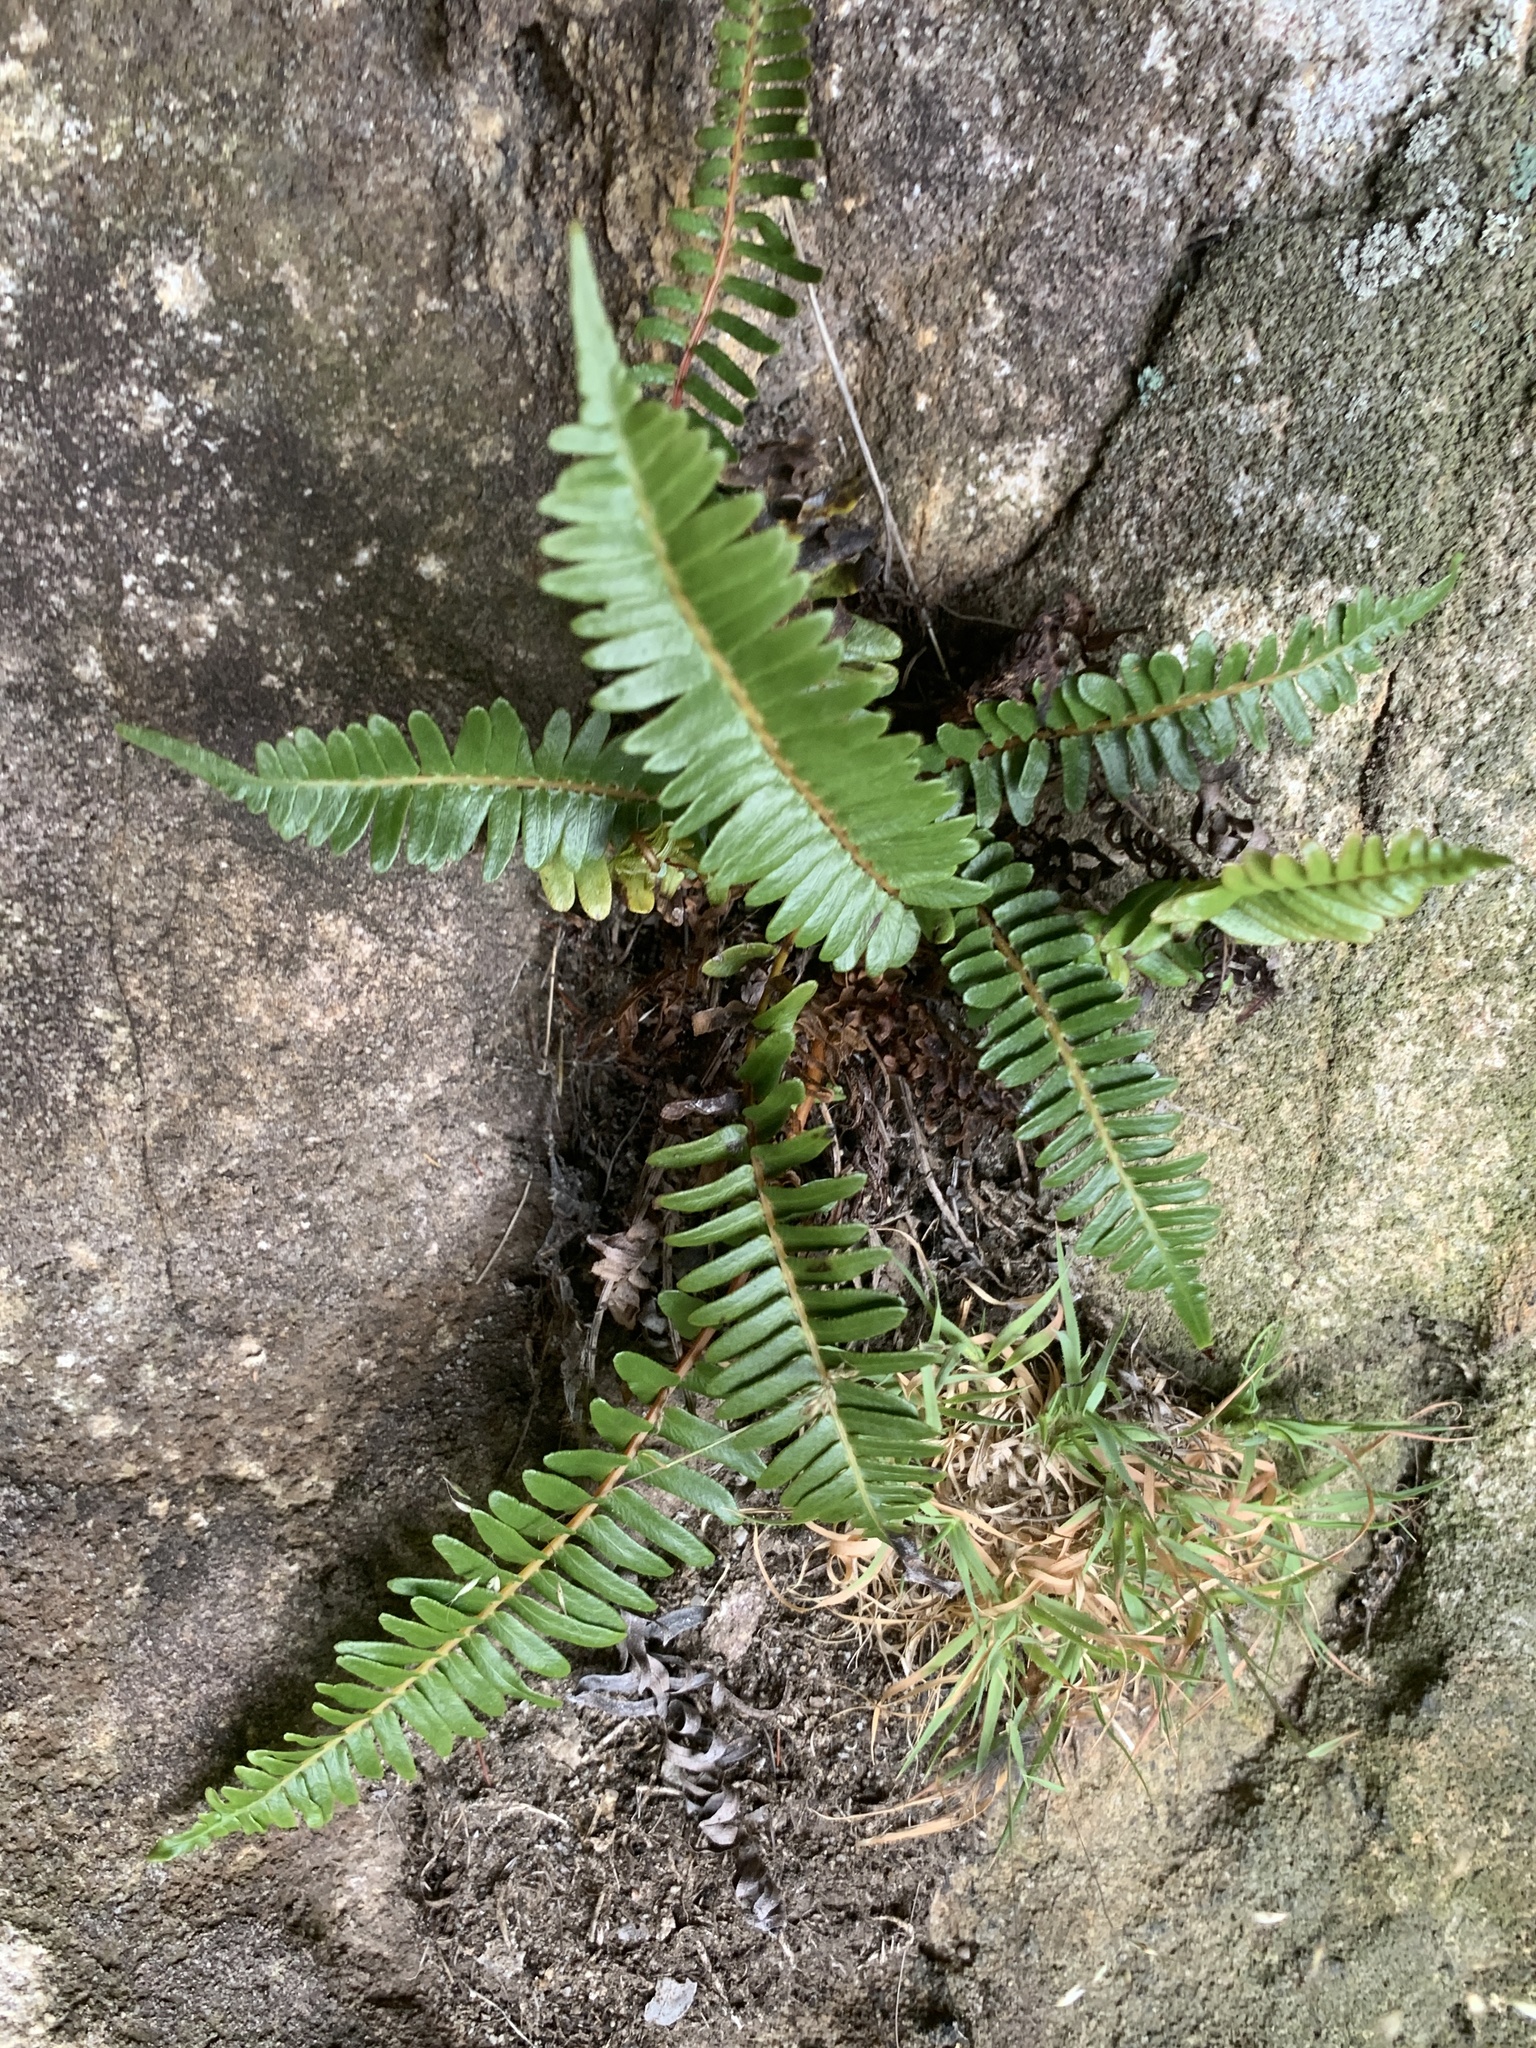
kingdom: Plantae
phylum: Tracheophyta
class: Polypodiopsida
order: Polypodiales
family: Blechnaceae
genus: Blechnum
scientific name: Blechnum australe
